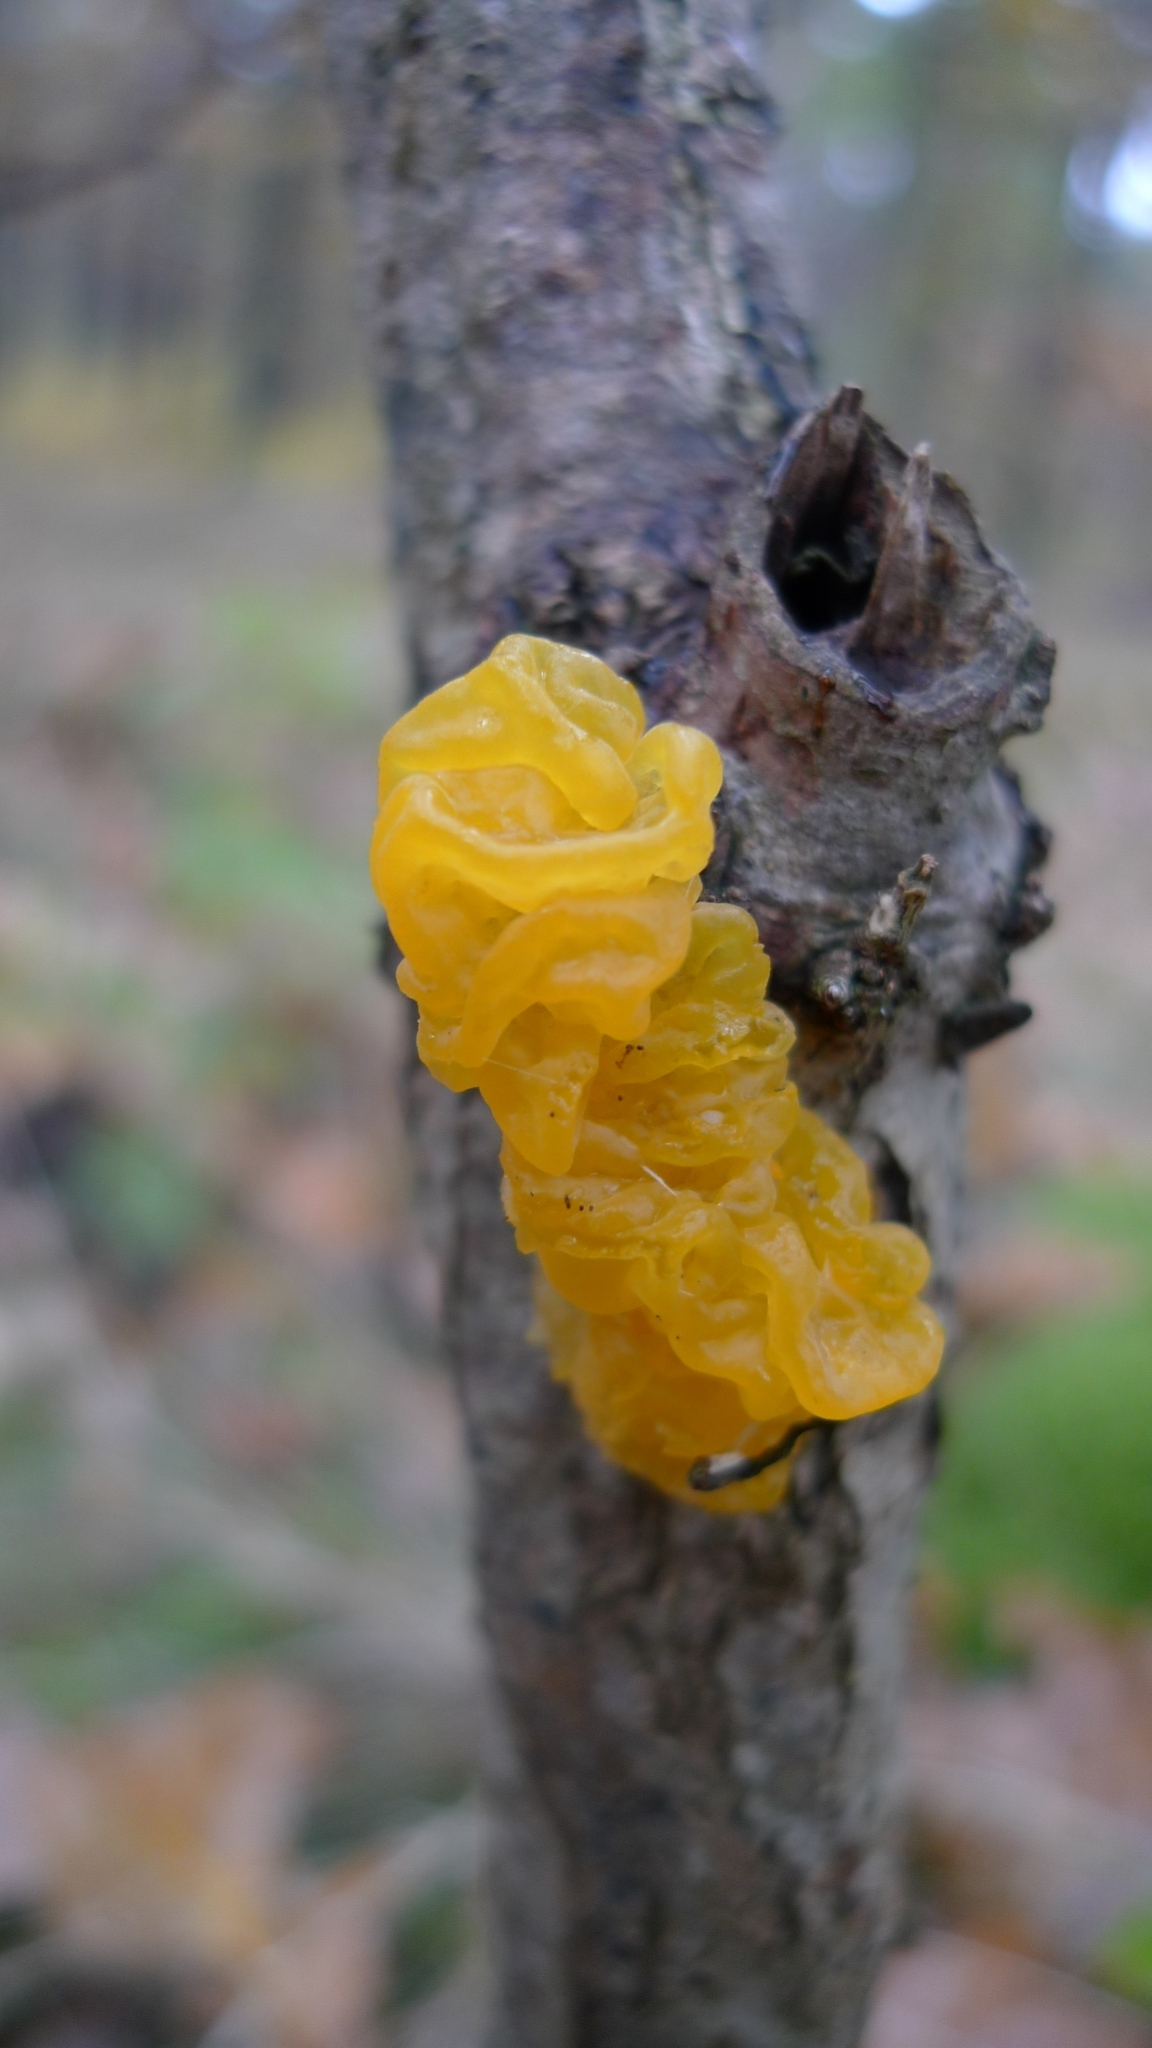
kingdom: Fungi
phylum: Basidiomycota
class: Tremellomycetes
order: Tremellales
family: Tremellaceae
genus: Tremella
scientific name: Tremella mesenterica
